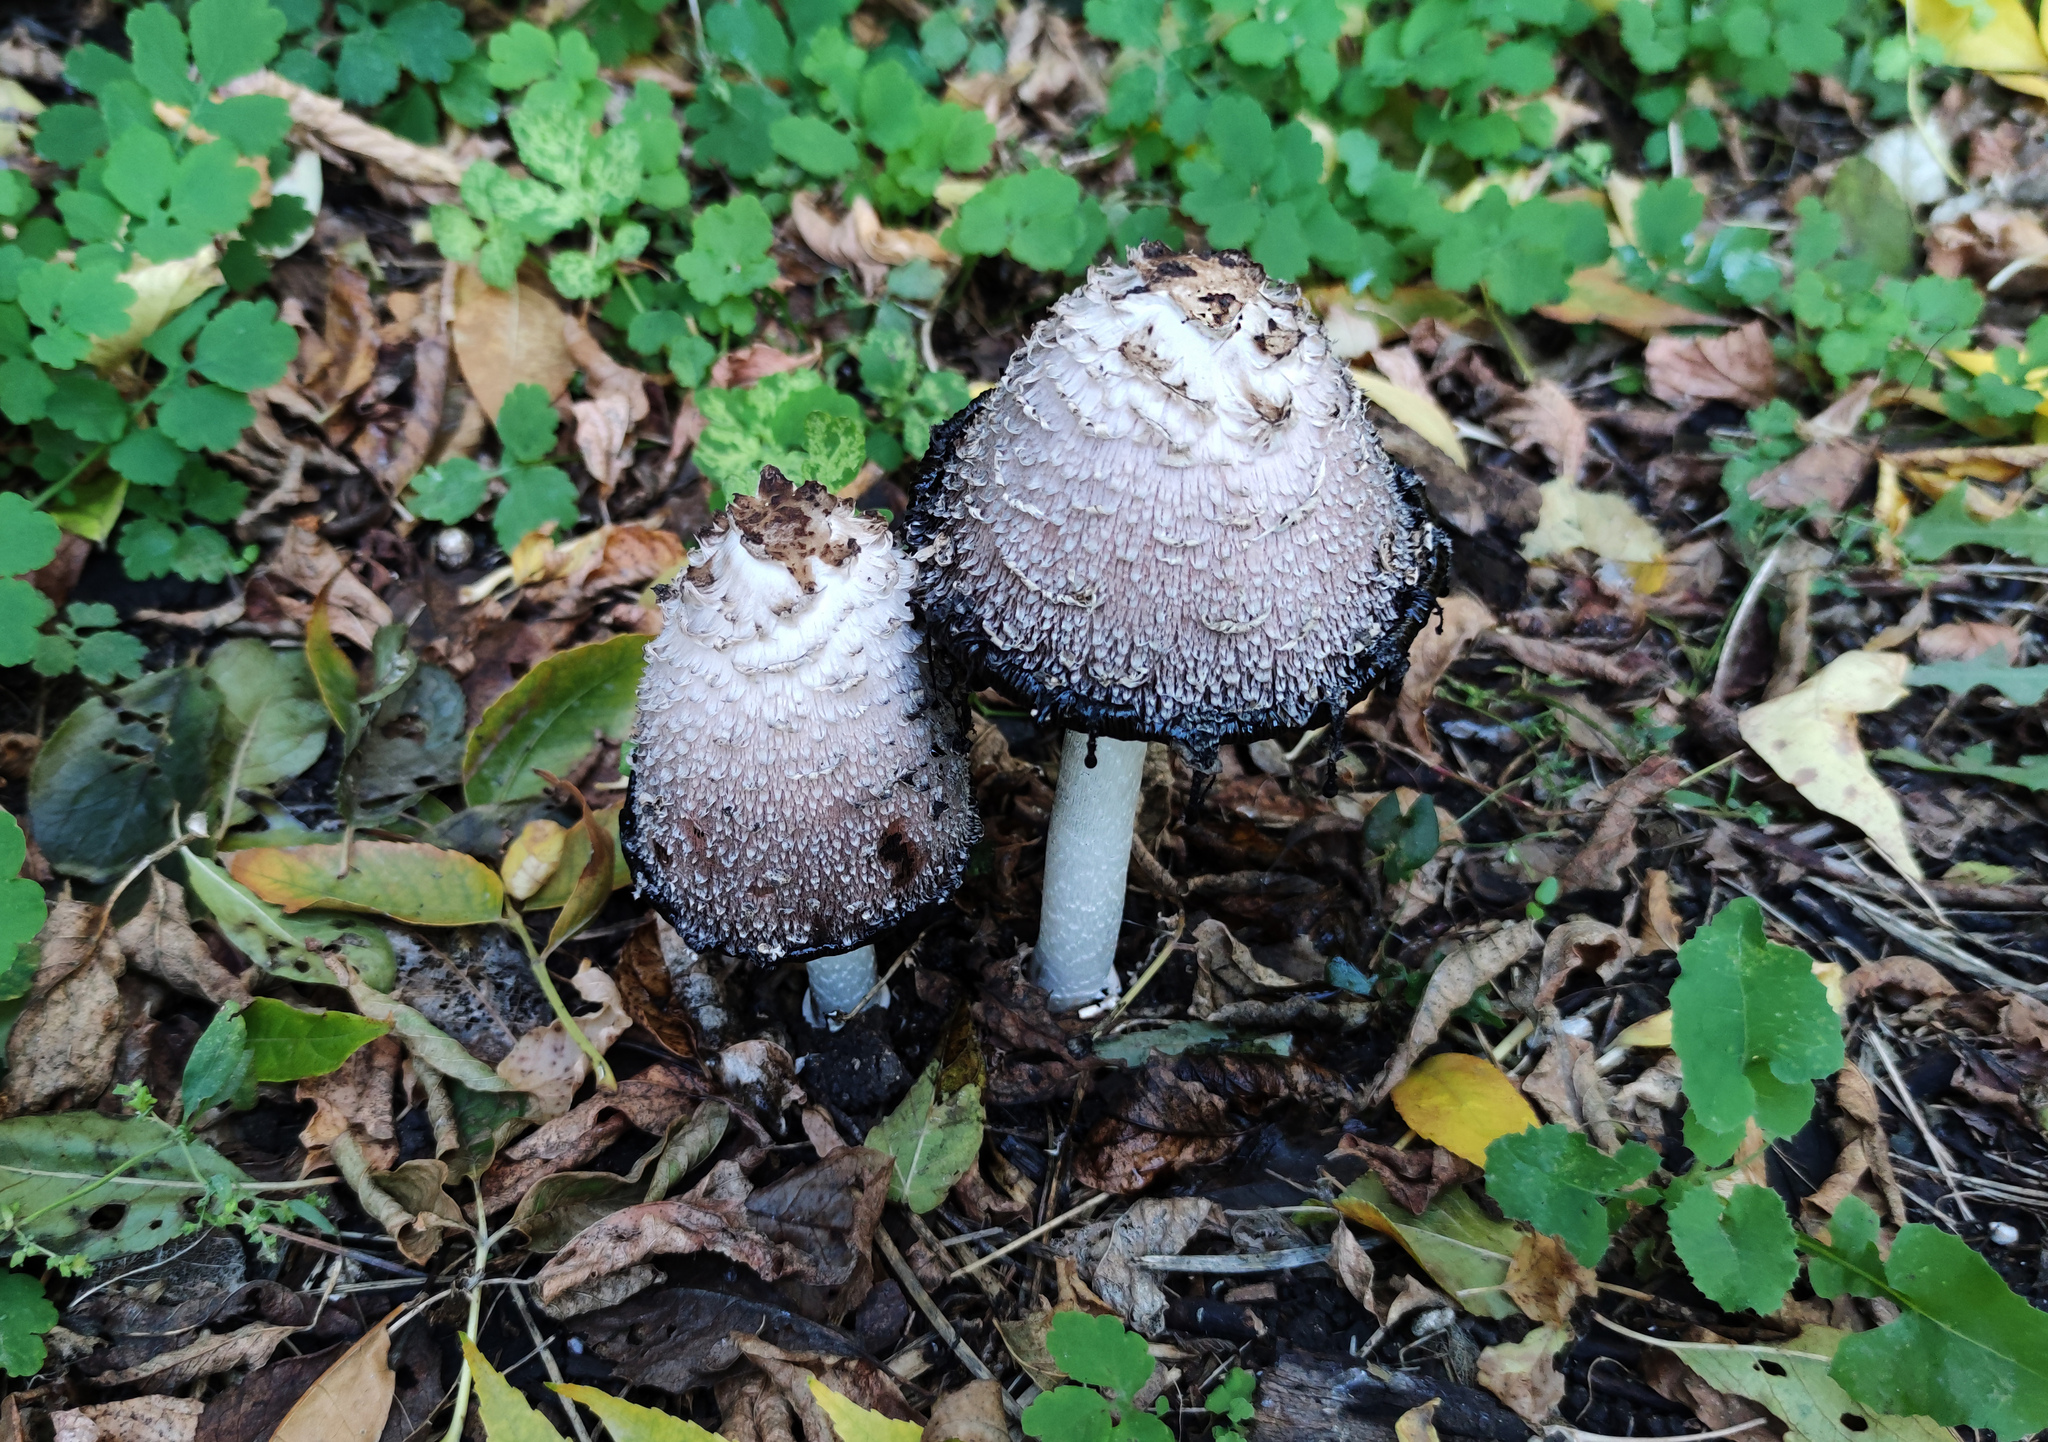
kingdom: Fungi
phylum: Basidiomycota
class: Agaricomycetes
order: Agaricales
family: Agaricaceae
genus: Coprinus
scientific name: Coprinus comatus
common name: Lawyer's wig
